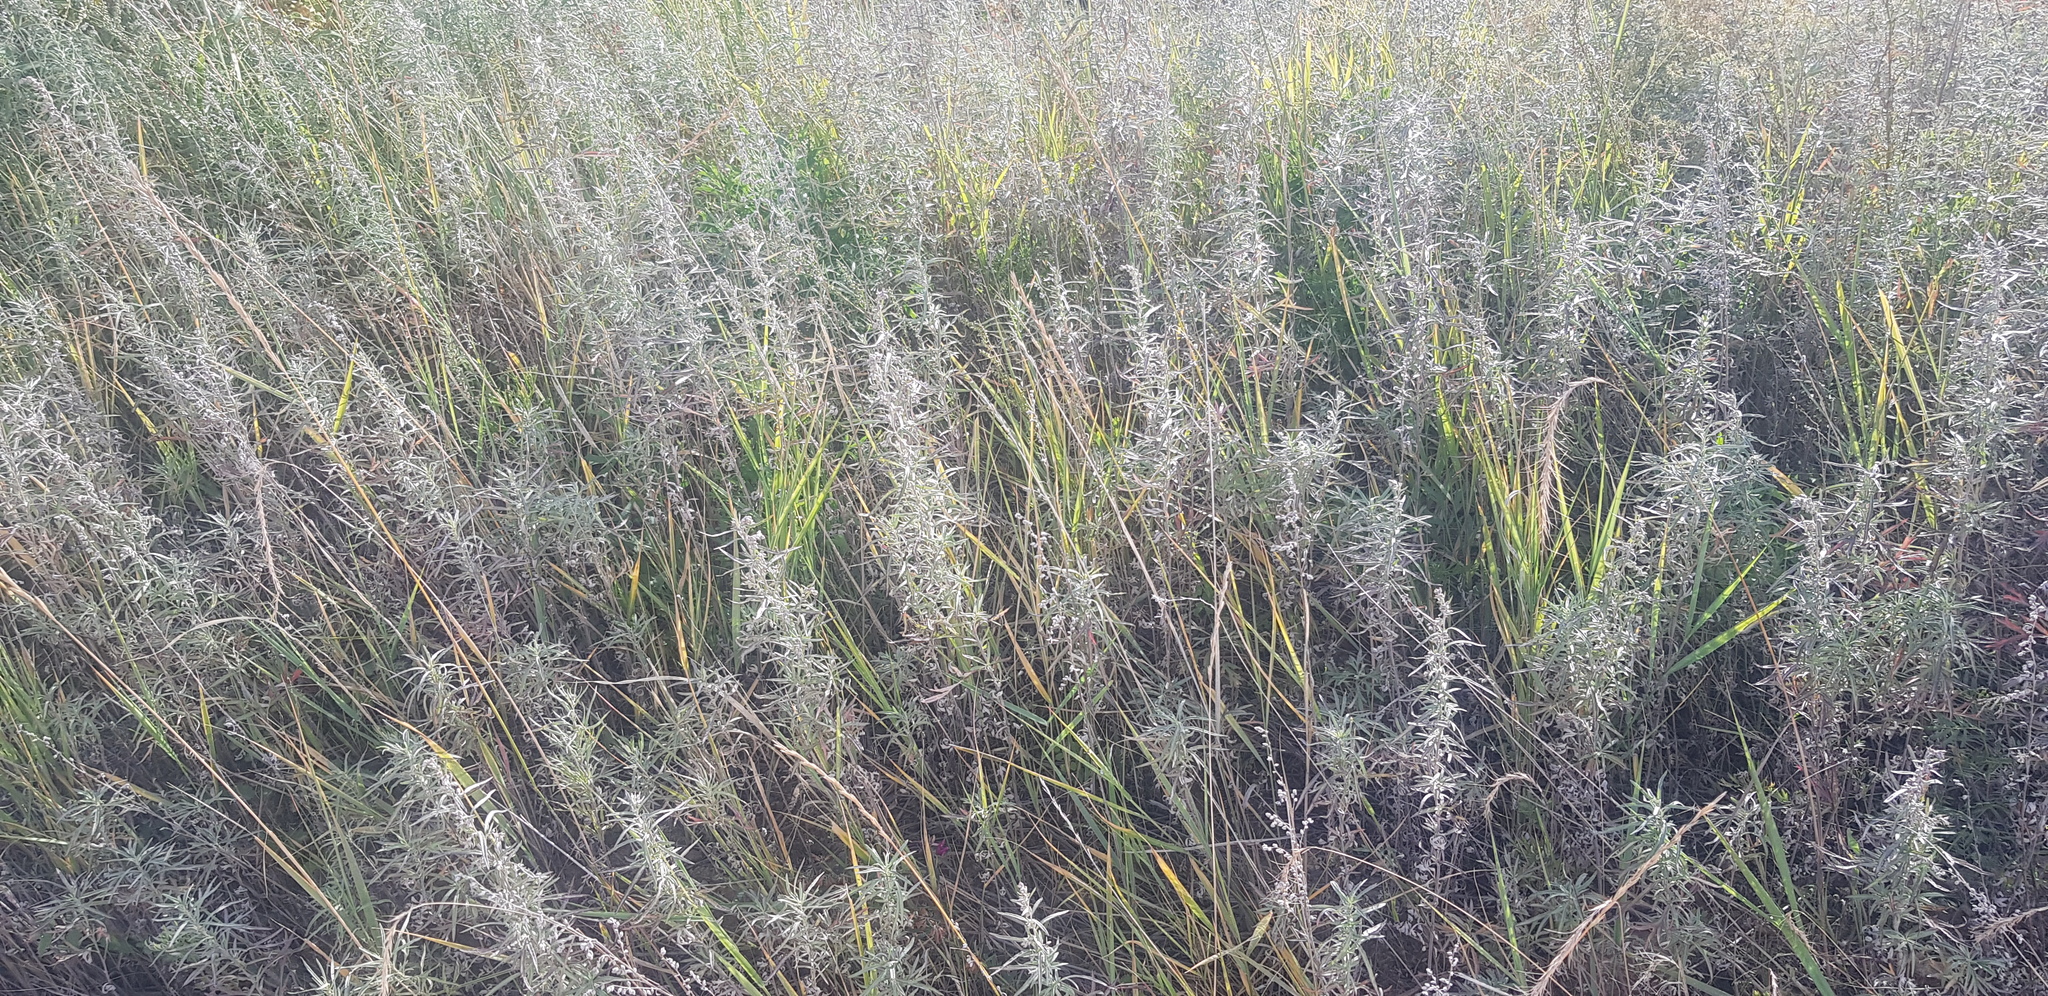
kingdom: Plantae
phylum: Tracheophyta
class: Magnoliopsida
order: Asterales
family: Asteraceae
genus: Artemisia
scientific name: Artemisia glauca
